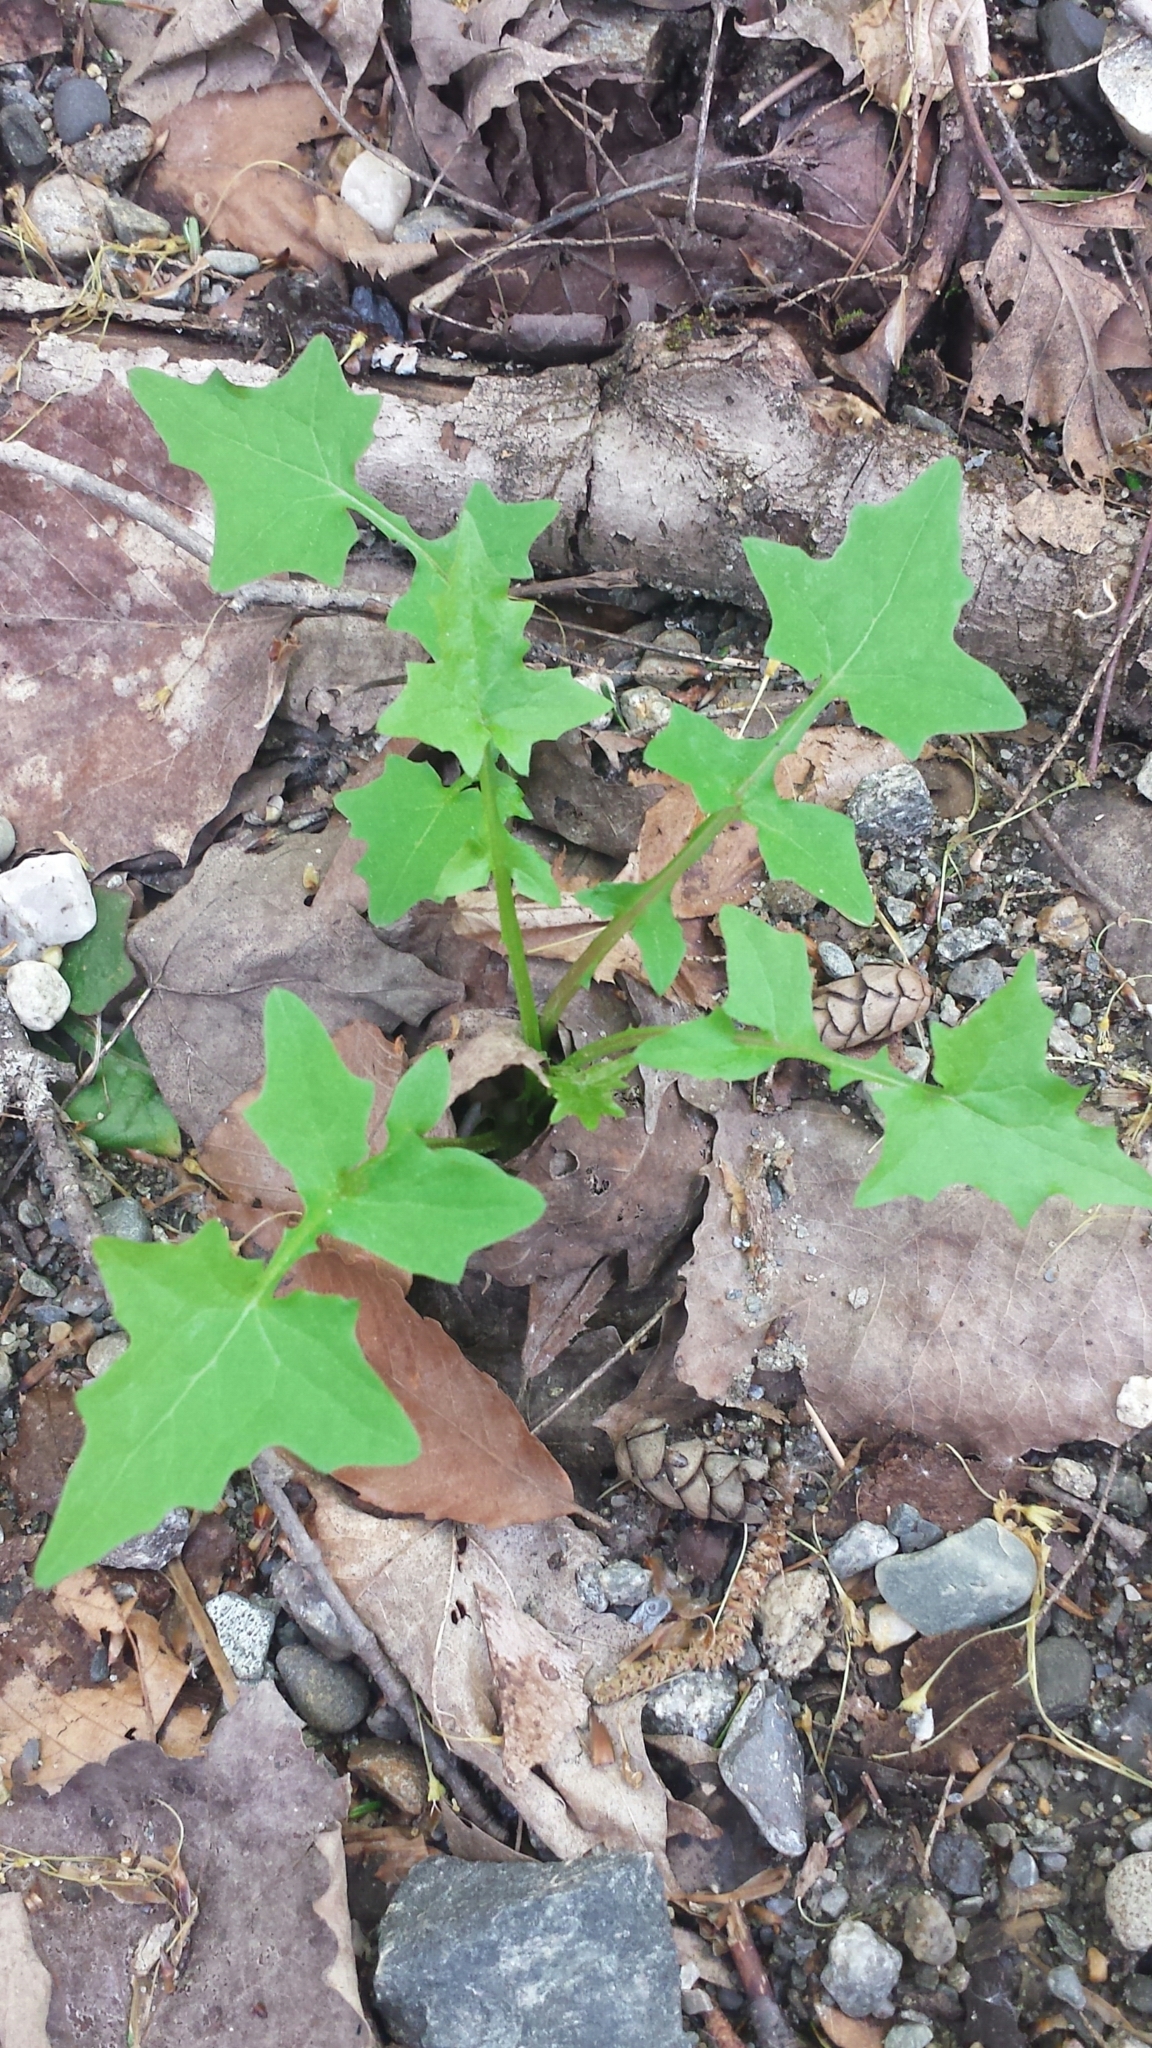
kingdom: Plantae
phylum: Tracheophyta
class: Magnoliopsida
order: Asterales
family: Asteraceae
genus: Mycelis
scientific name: Mycelis muralis
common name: Wall lettuce
